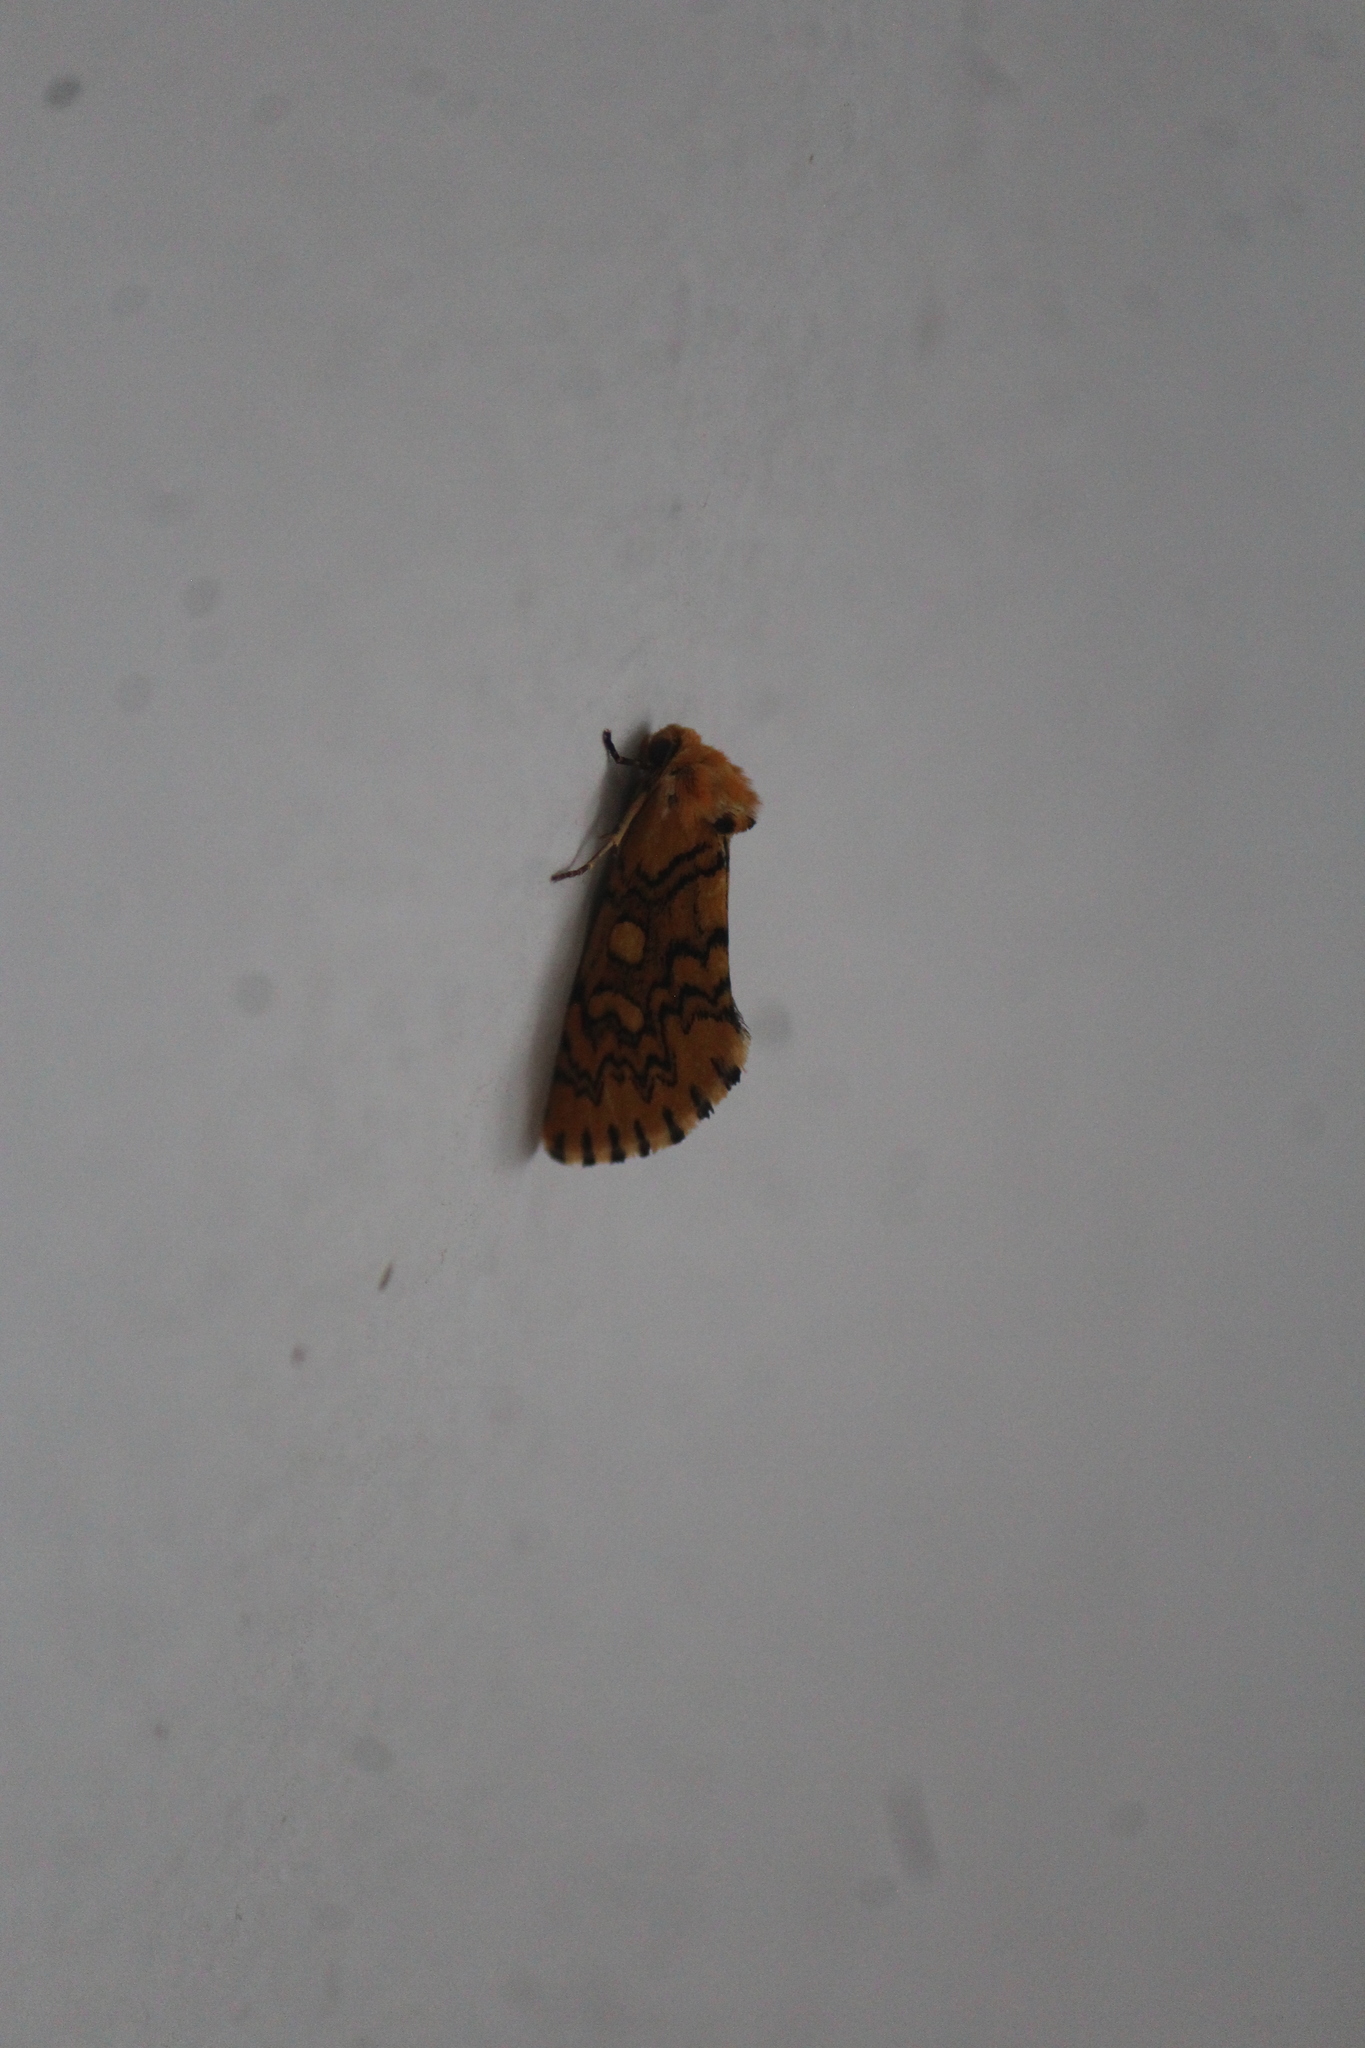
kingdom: Animalia
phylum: Arthropoda
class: Insecta
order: Lepidoptera
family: Noctuidae
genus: Chrysoecia
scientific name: Chrysoecia
